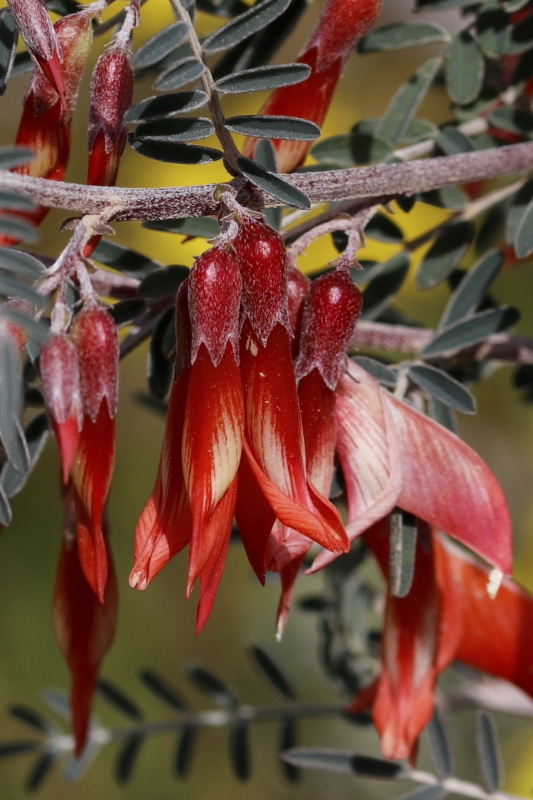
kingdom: Plantae
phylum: Tracheophyta
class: Magnoliopsida
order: Fabales
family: Fabaceae
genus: Lessertia
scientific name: Lessertia frutescens
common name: Balloon-pea
